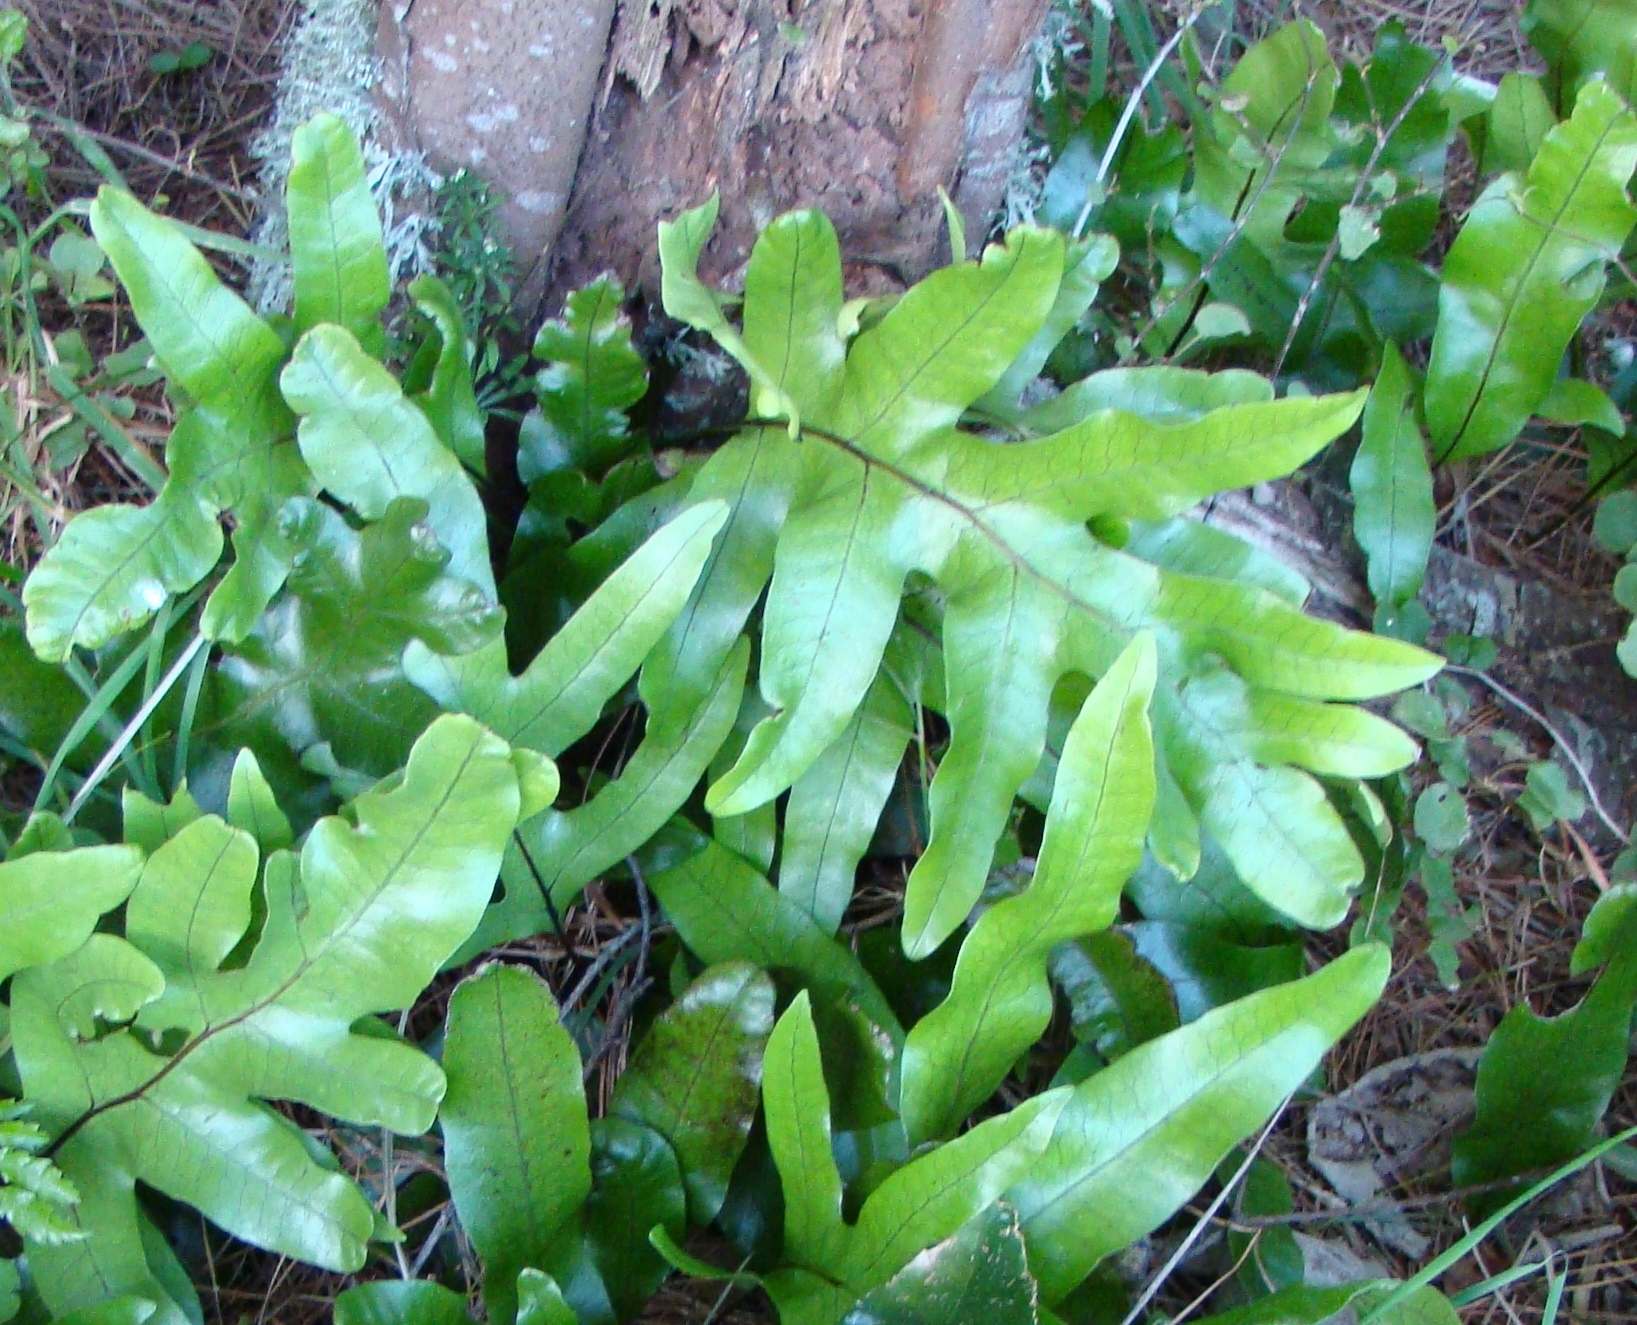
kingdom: Plantae
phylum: Tracheophyta
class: Polypodiopsida
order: Polypodiales
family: Polypodiaceae
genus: Lecanopteris
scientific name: Lecanopteris pustulata
